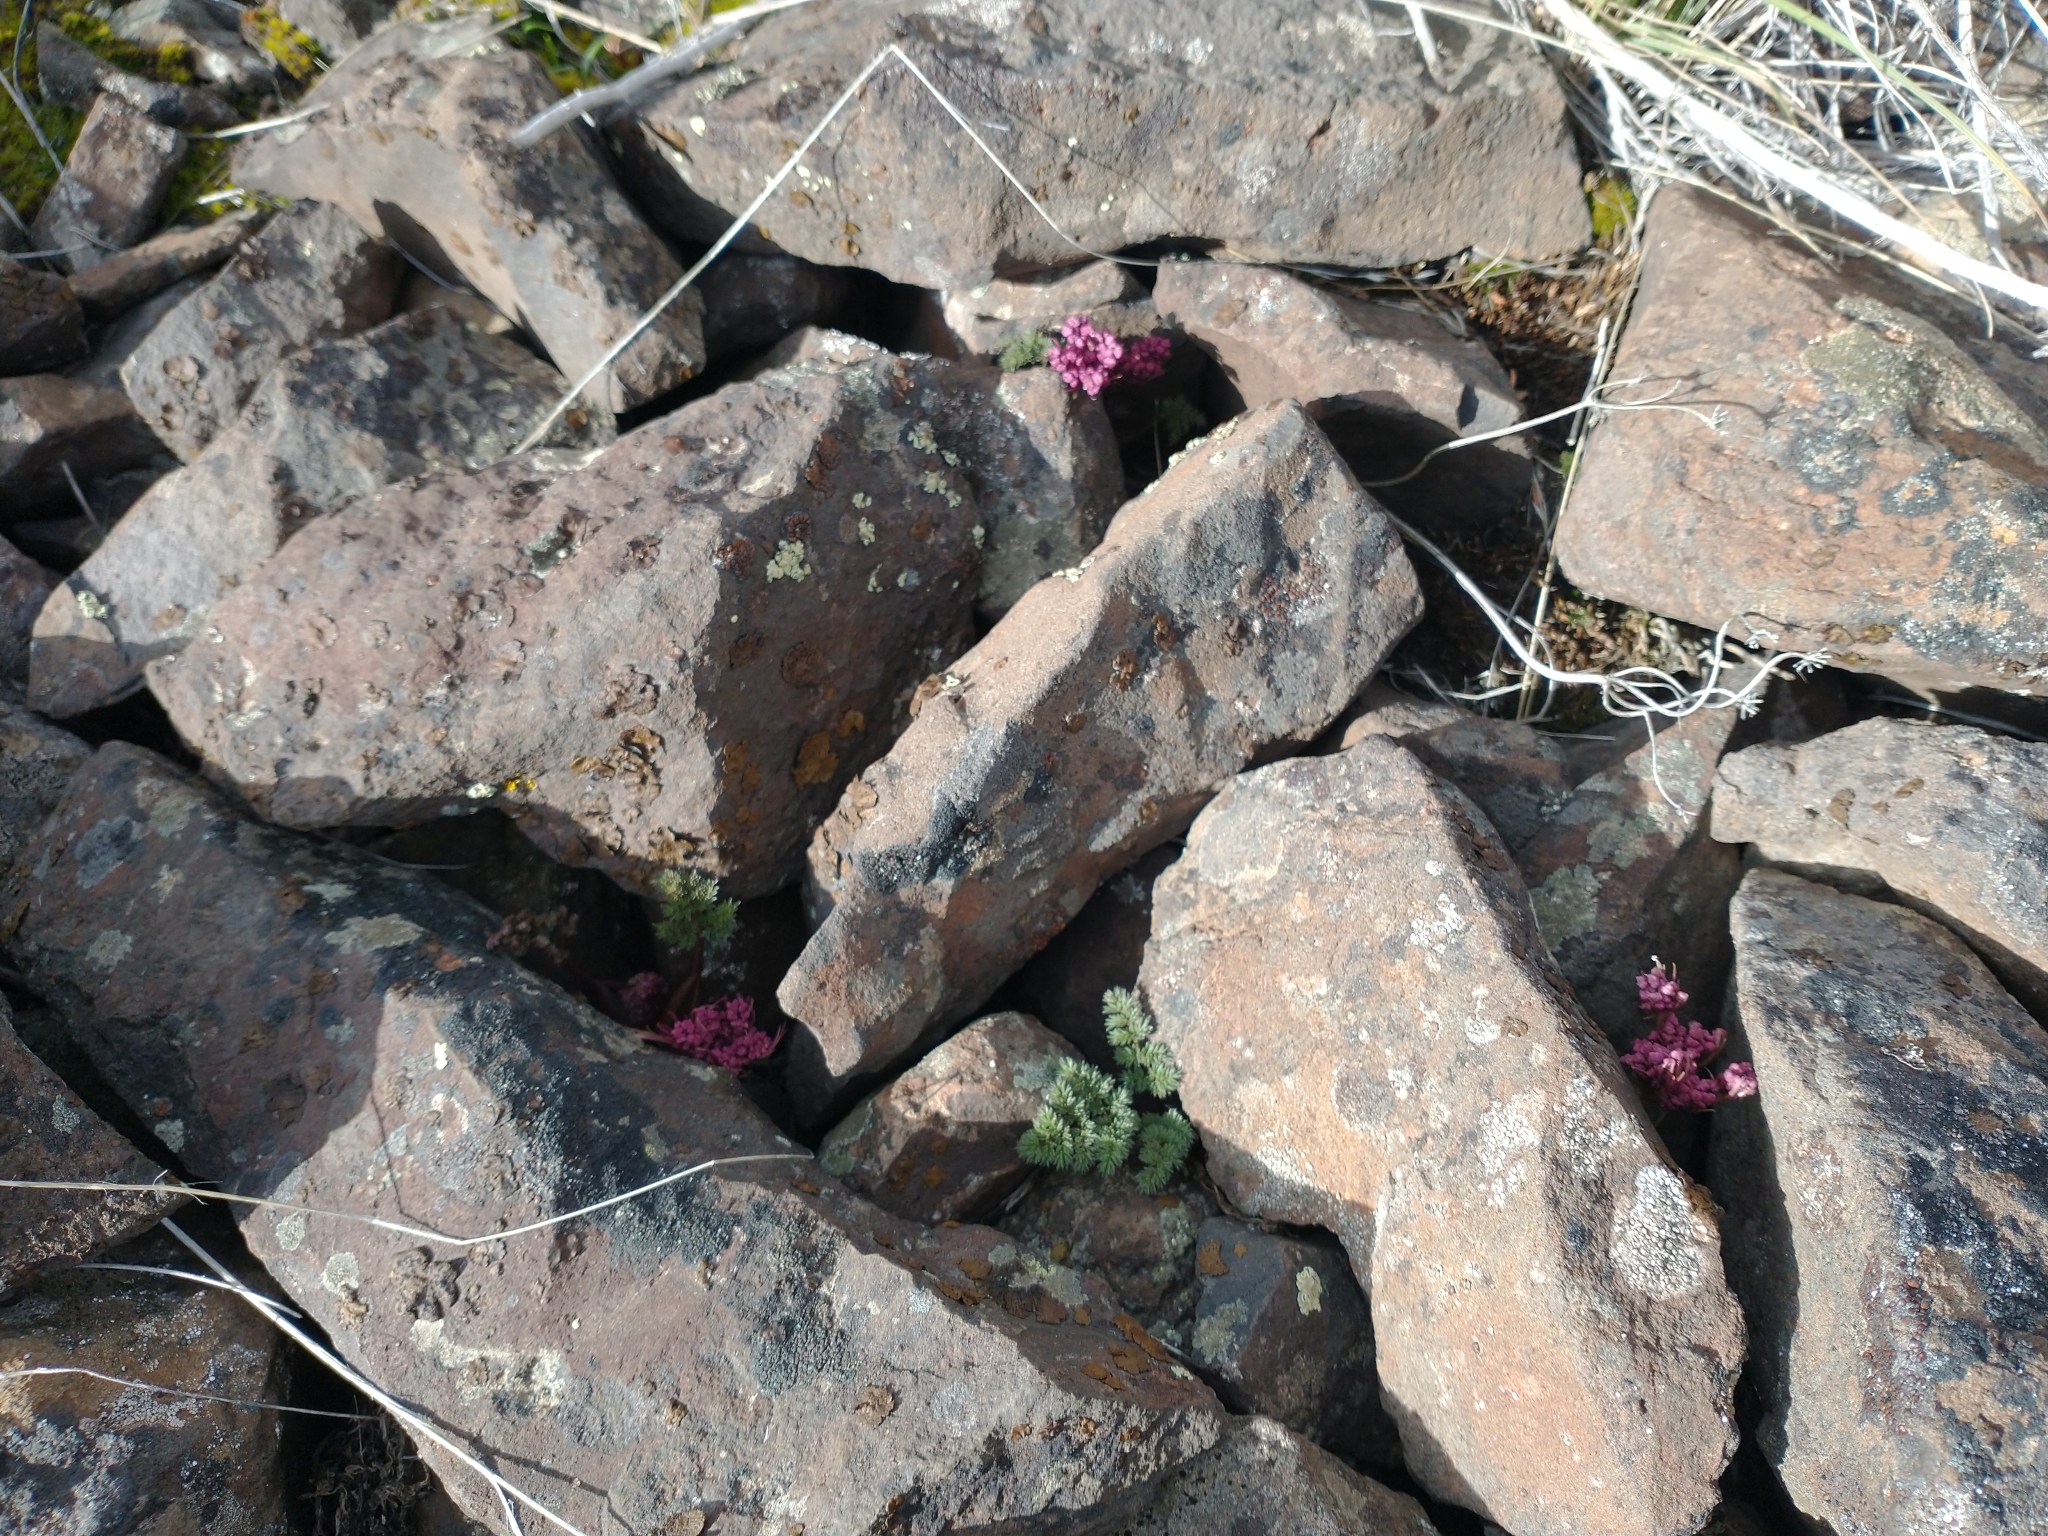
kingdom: Plantae
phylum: Tracheophyta
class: Magnoliopsida
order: Apiales
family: Apiaceae
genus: Lomatium
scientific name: Lomatium minus
